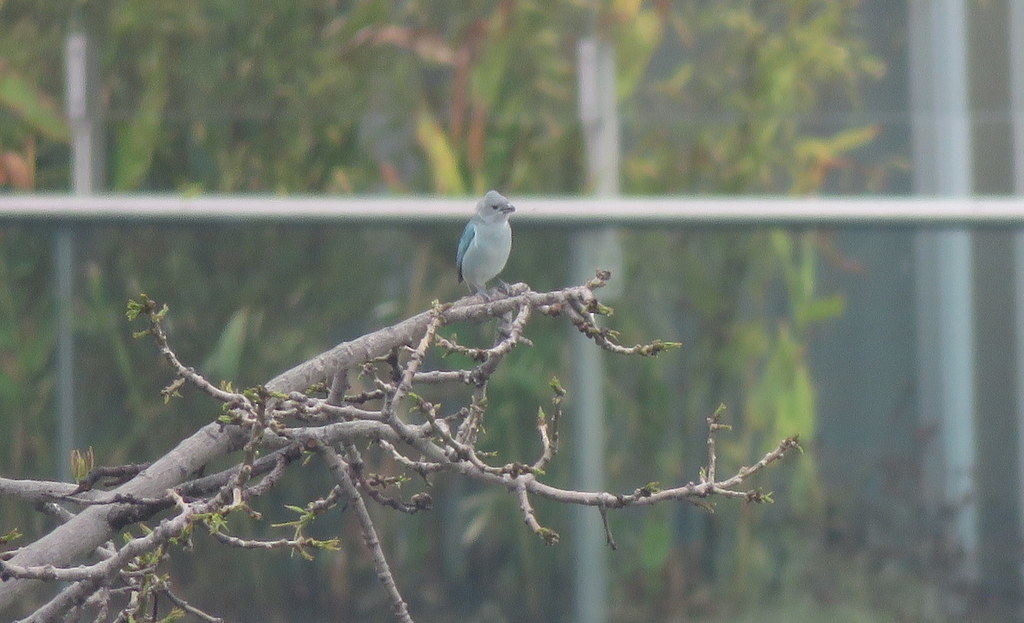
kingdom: Animalia
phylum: Chordata
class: Aves
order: Passeriformes
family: Thraupidae
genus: Thraupis
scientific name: Thraupis sayaca
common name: Sayaca tanager
